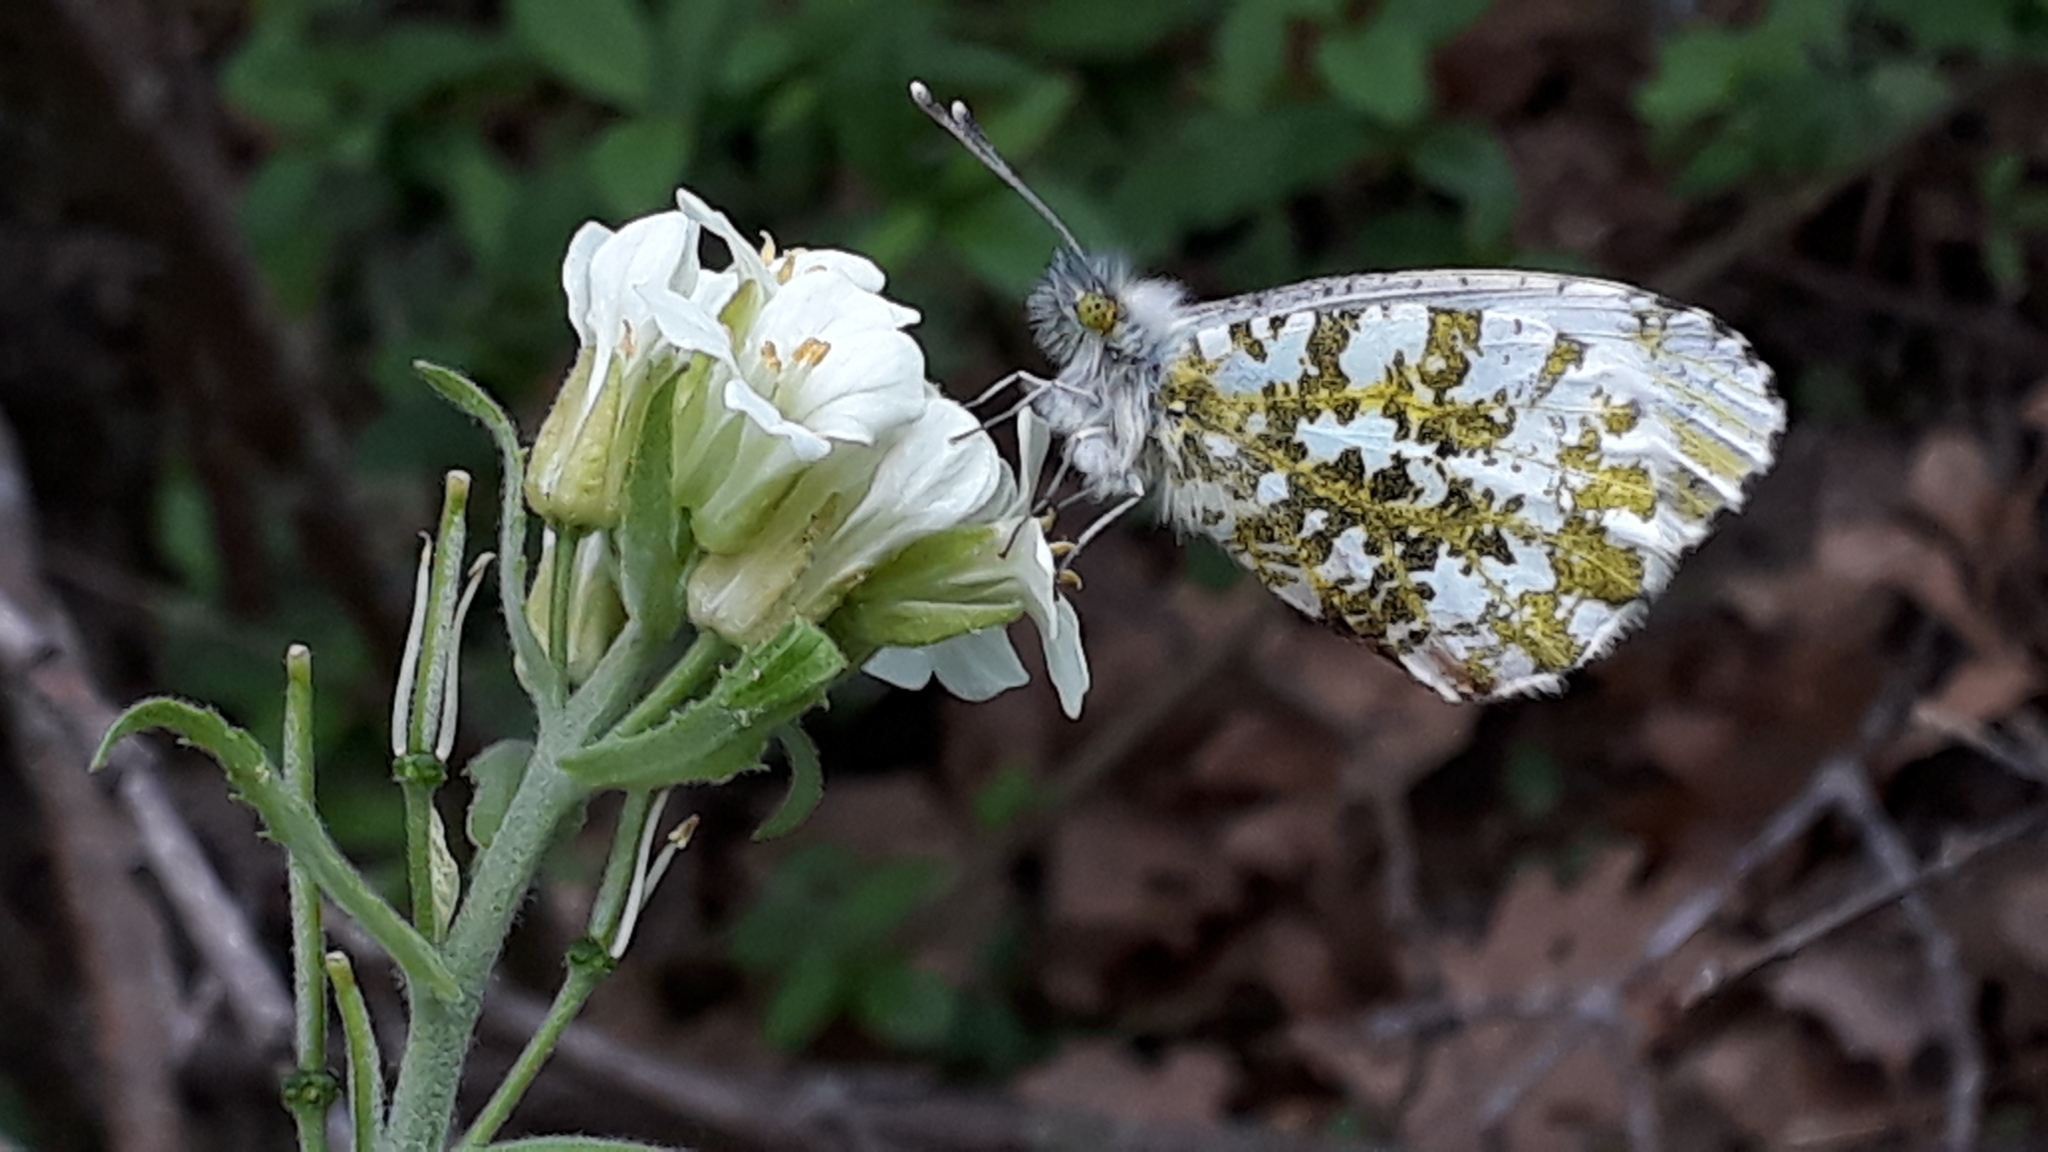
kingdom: Animalia
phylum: Arthropoda
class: Insecta
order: Lepidoptera
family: Pieridae
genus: Anthocharis
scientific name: Anthocharis cardamines
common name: Orange-tip
